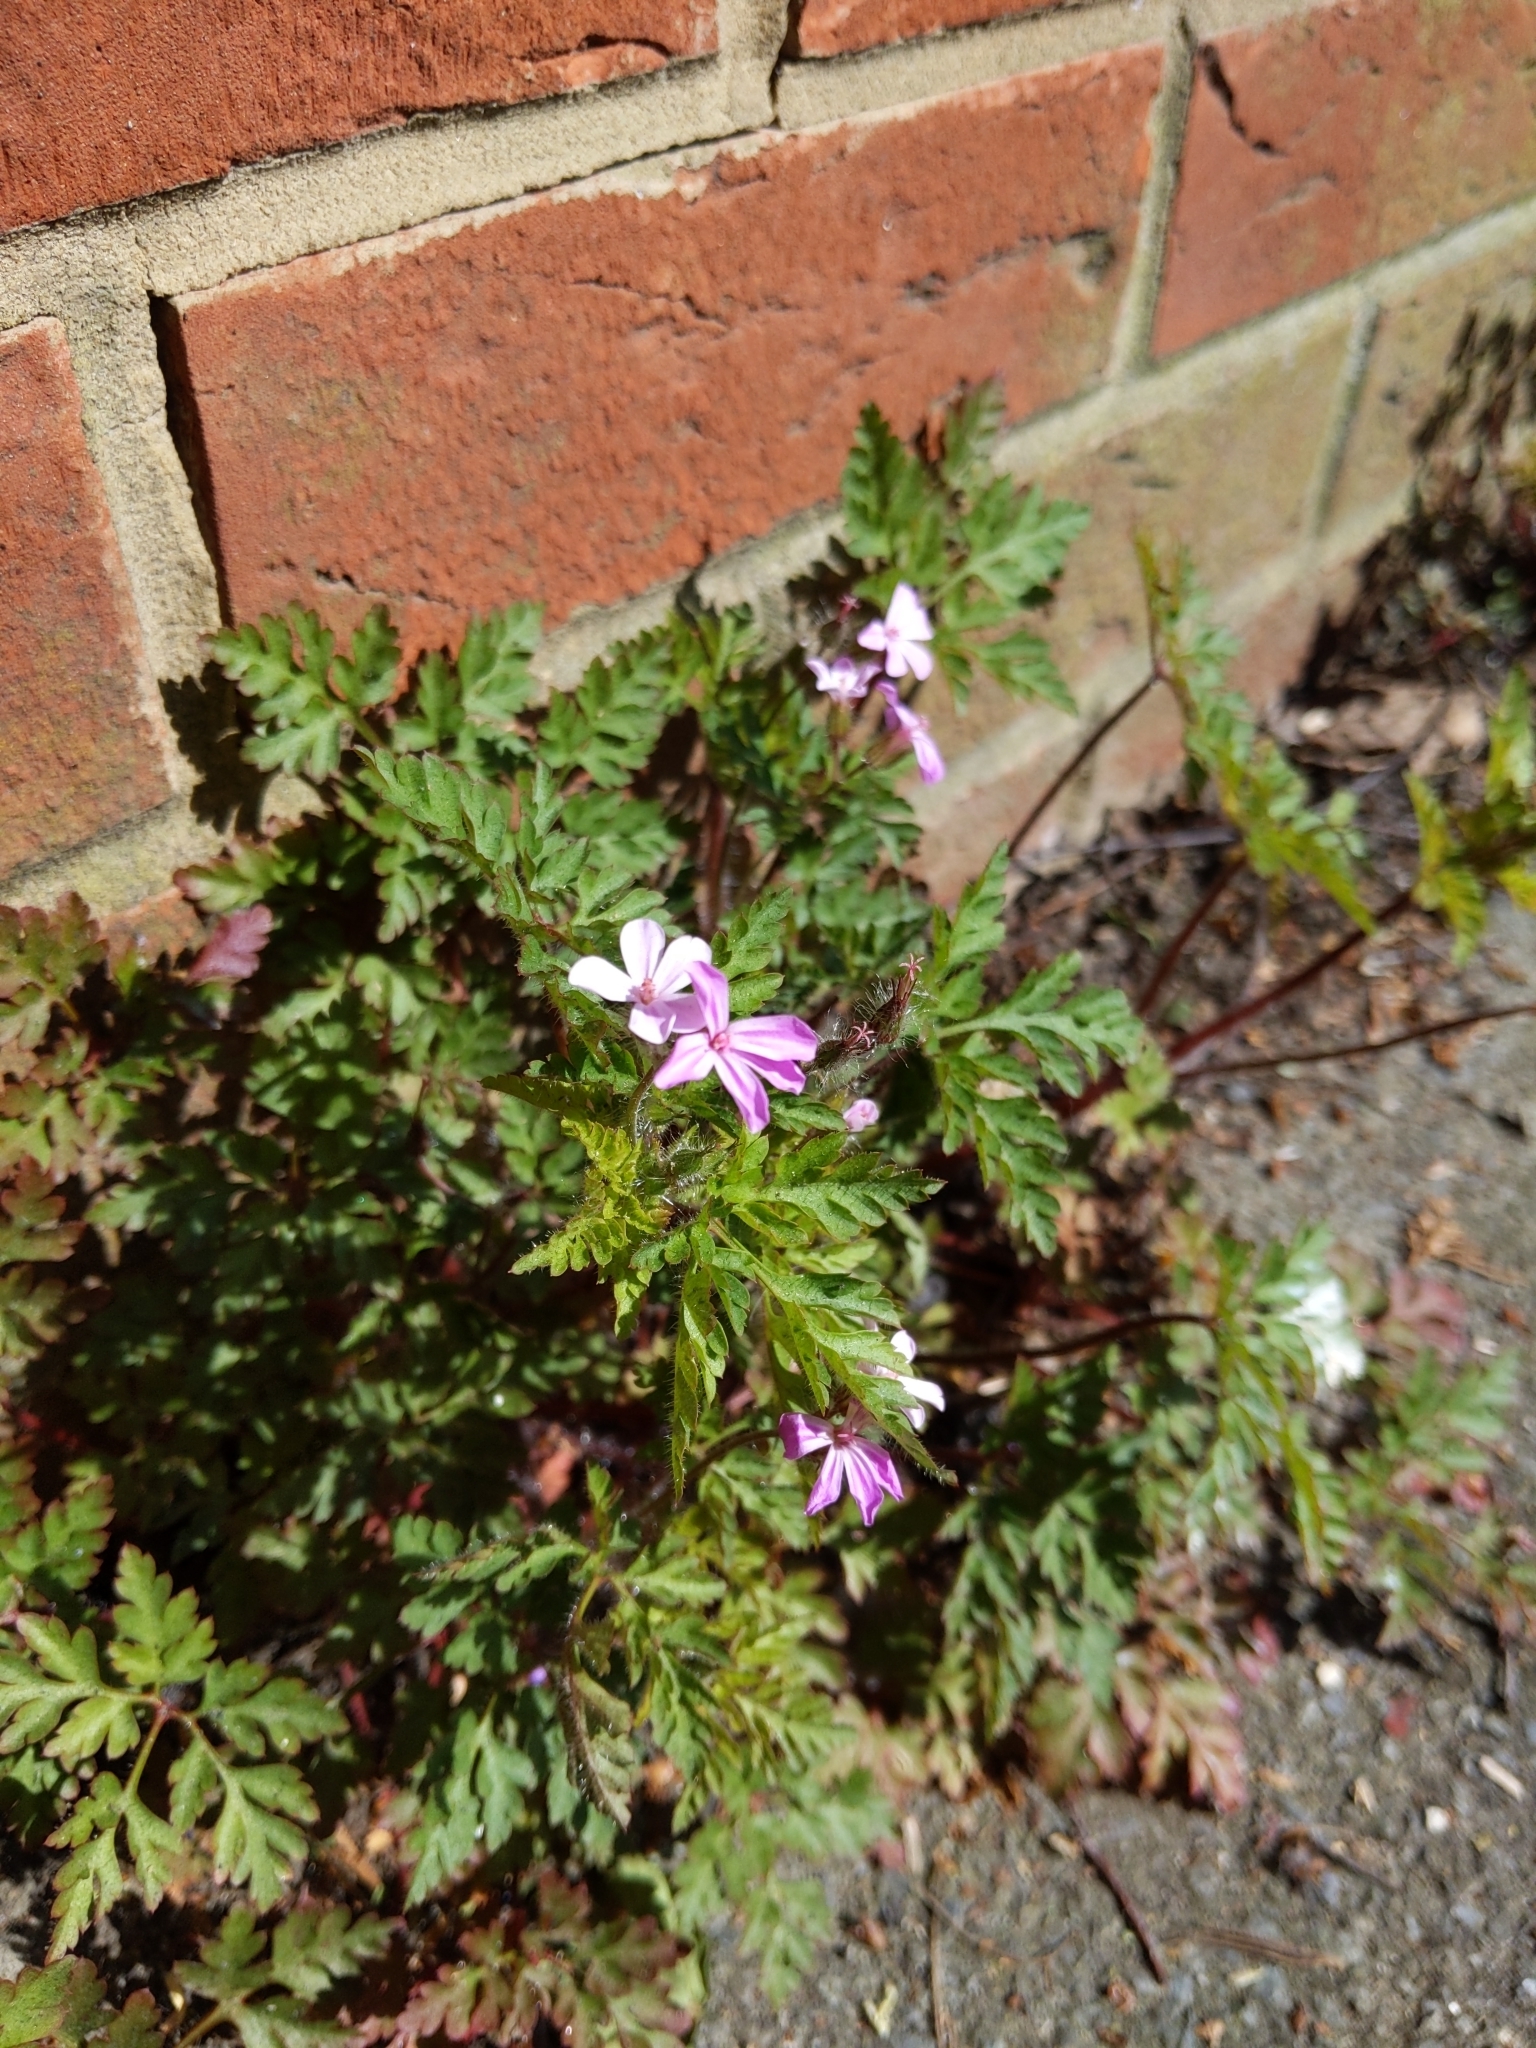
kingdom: Plantae
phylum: Tracheophyta
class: Magnoliopsida
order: Geraniales
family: Geraniaceae
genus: Geranium
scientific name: Geranium robertianum
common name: Herb-robert
